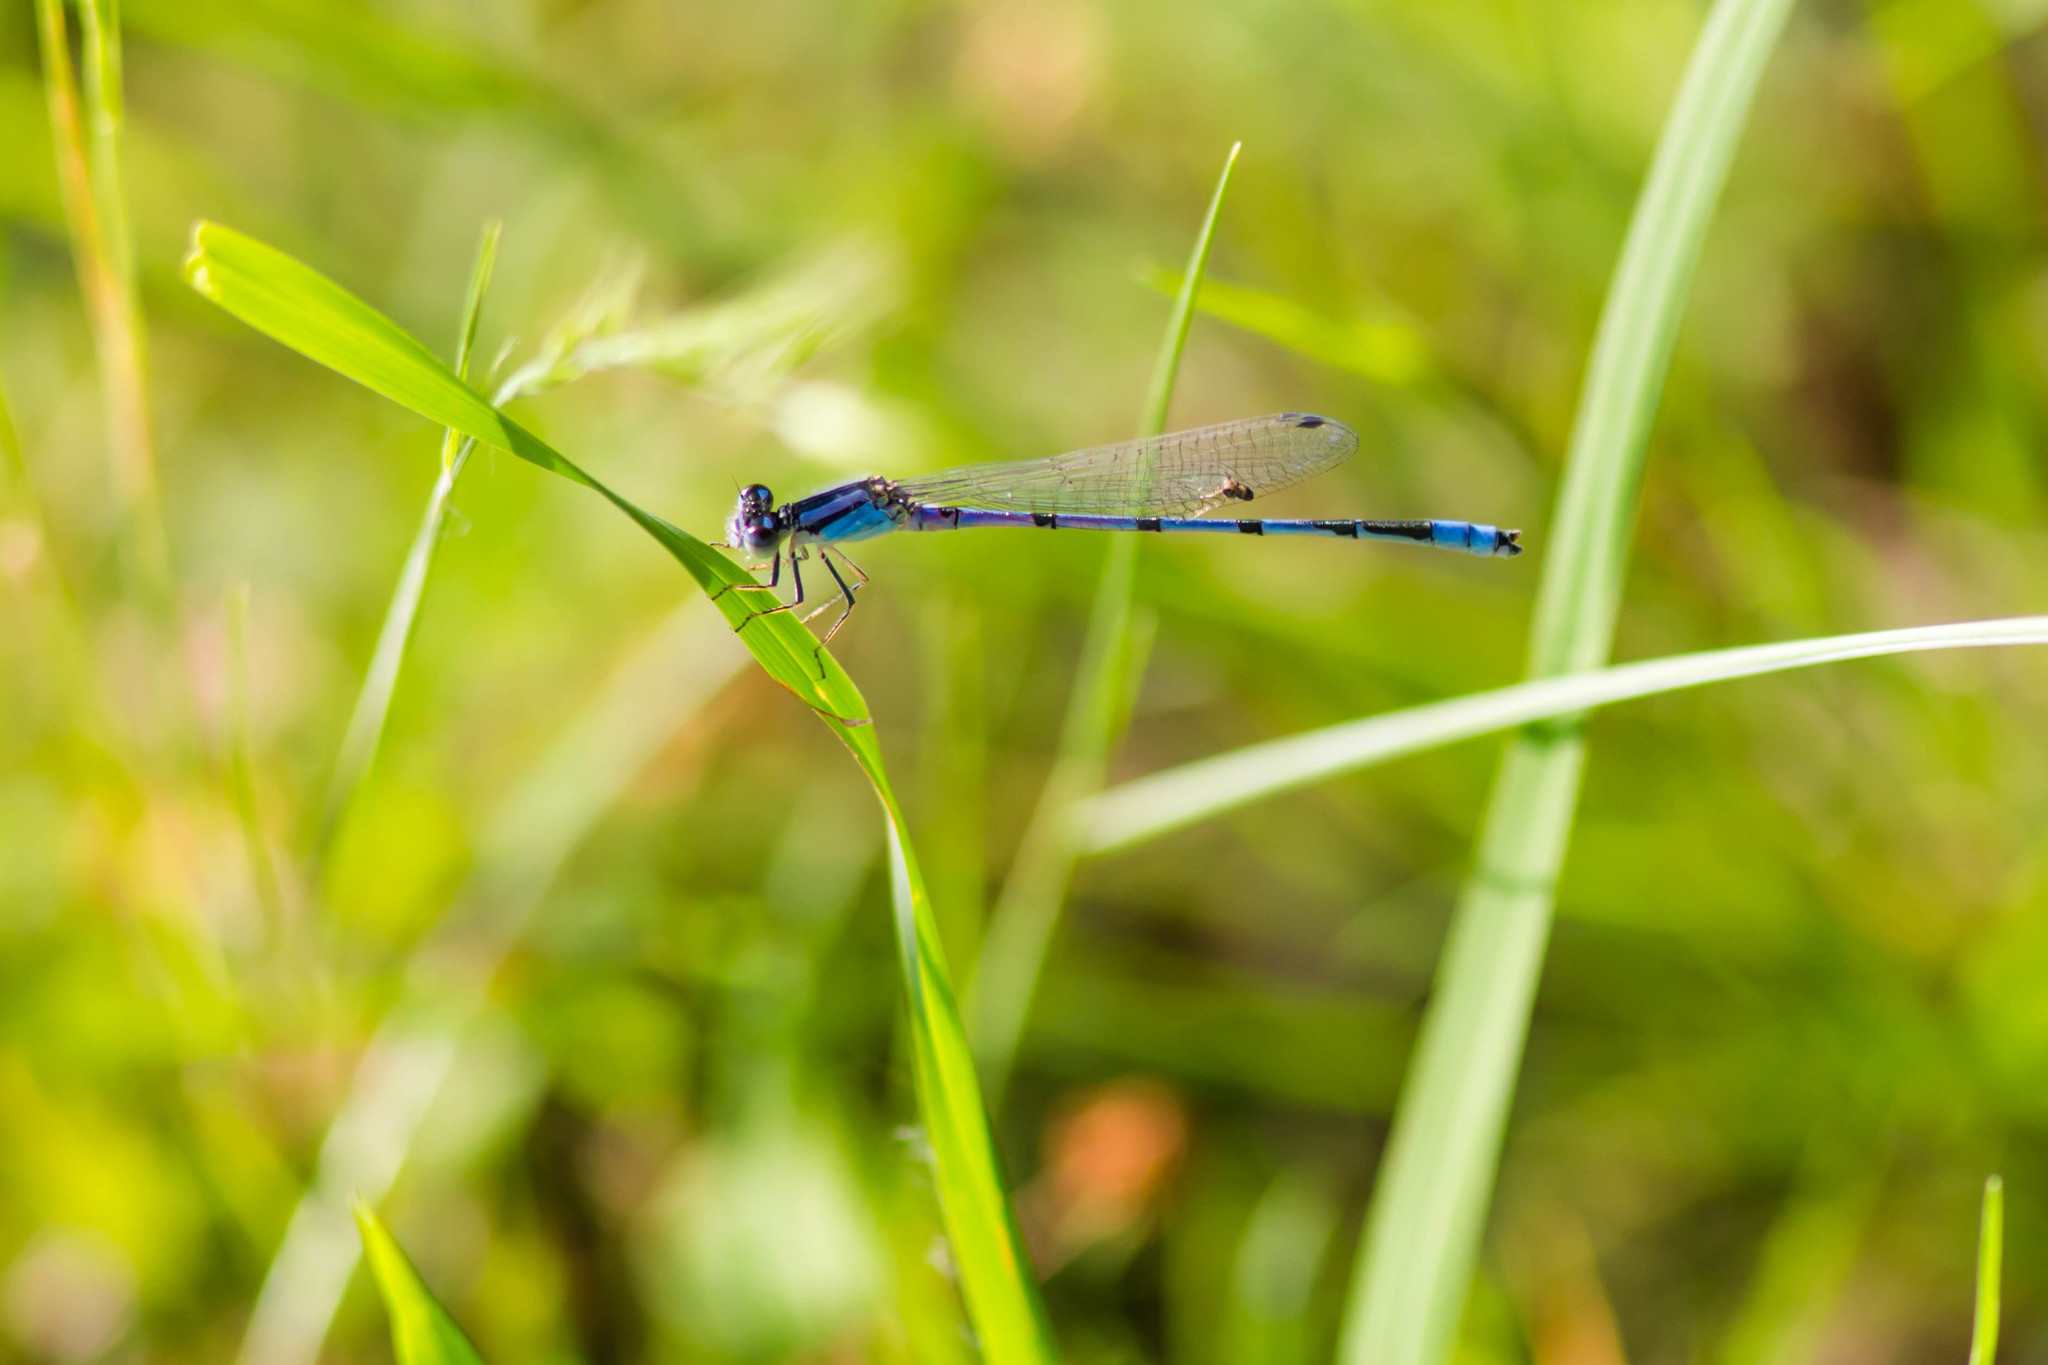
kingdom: Animalia
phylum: Arthropoda
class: Insecta
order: Odonata
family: Coenagrionidae
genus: Enallagma
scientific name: Enallagma civile
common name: Damselfly
